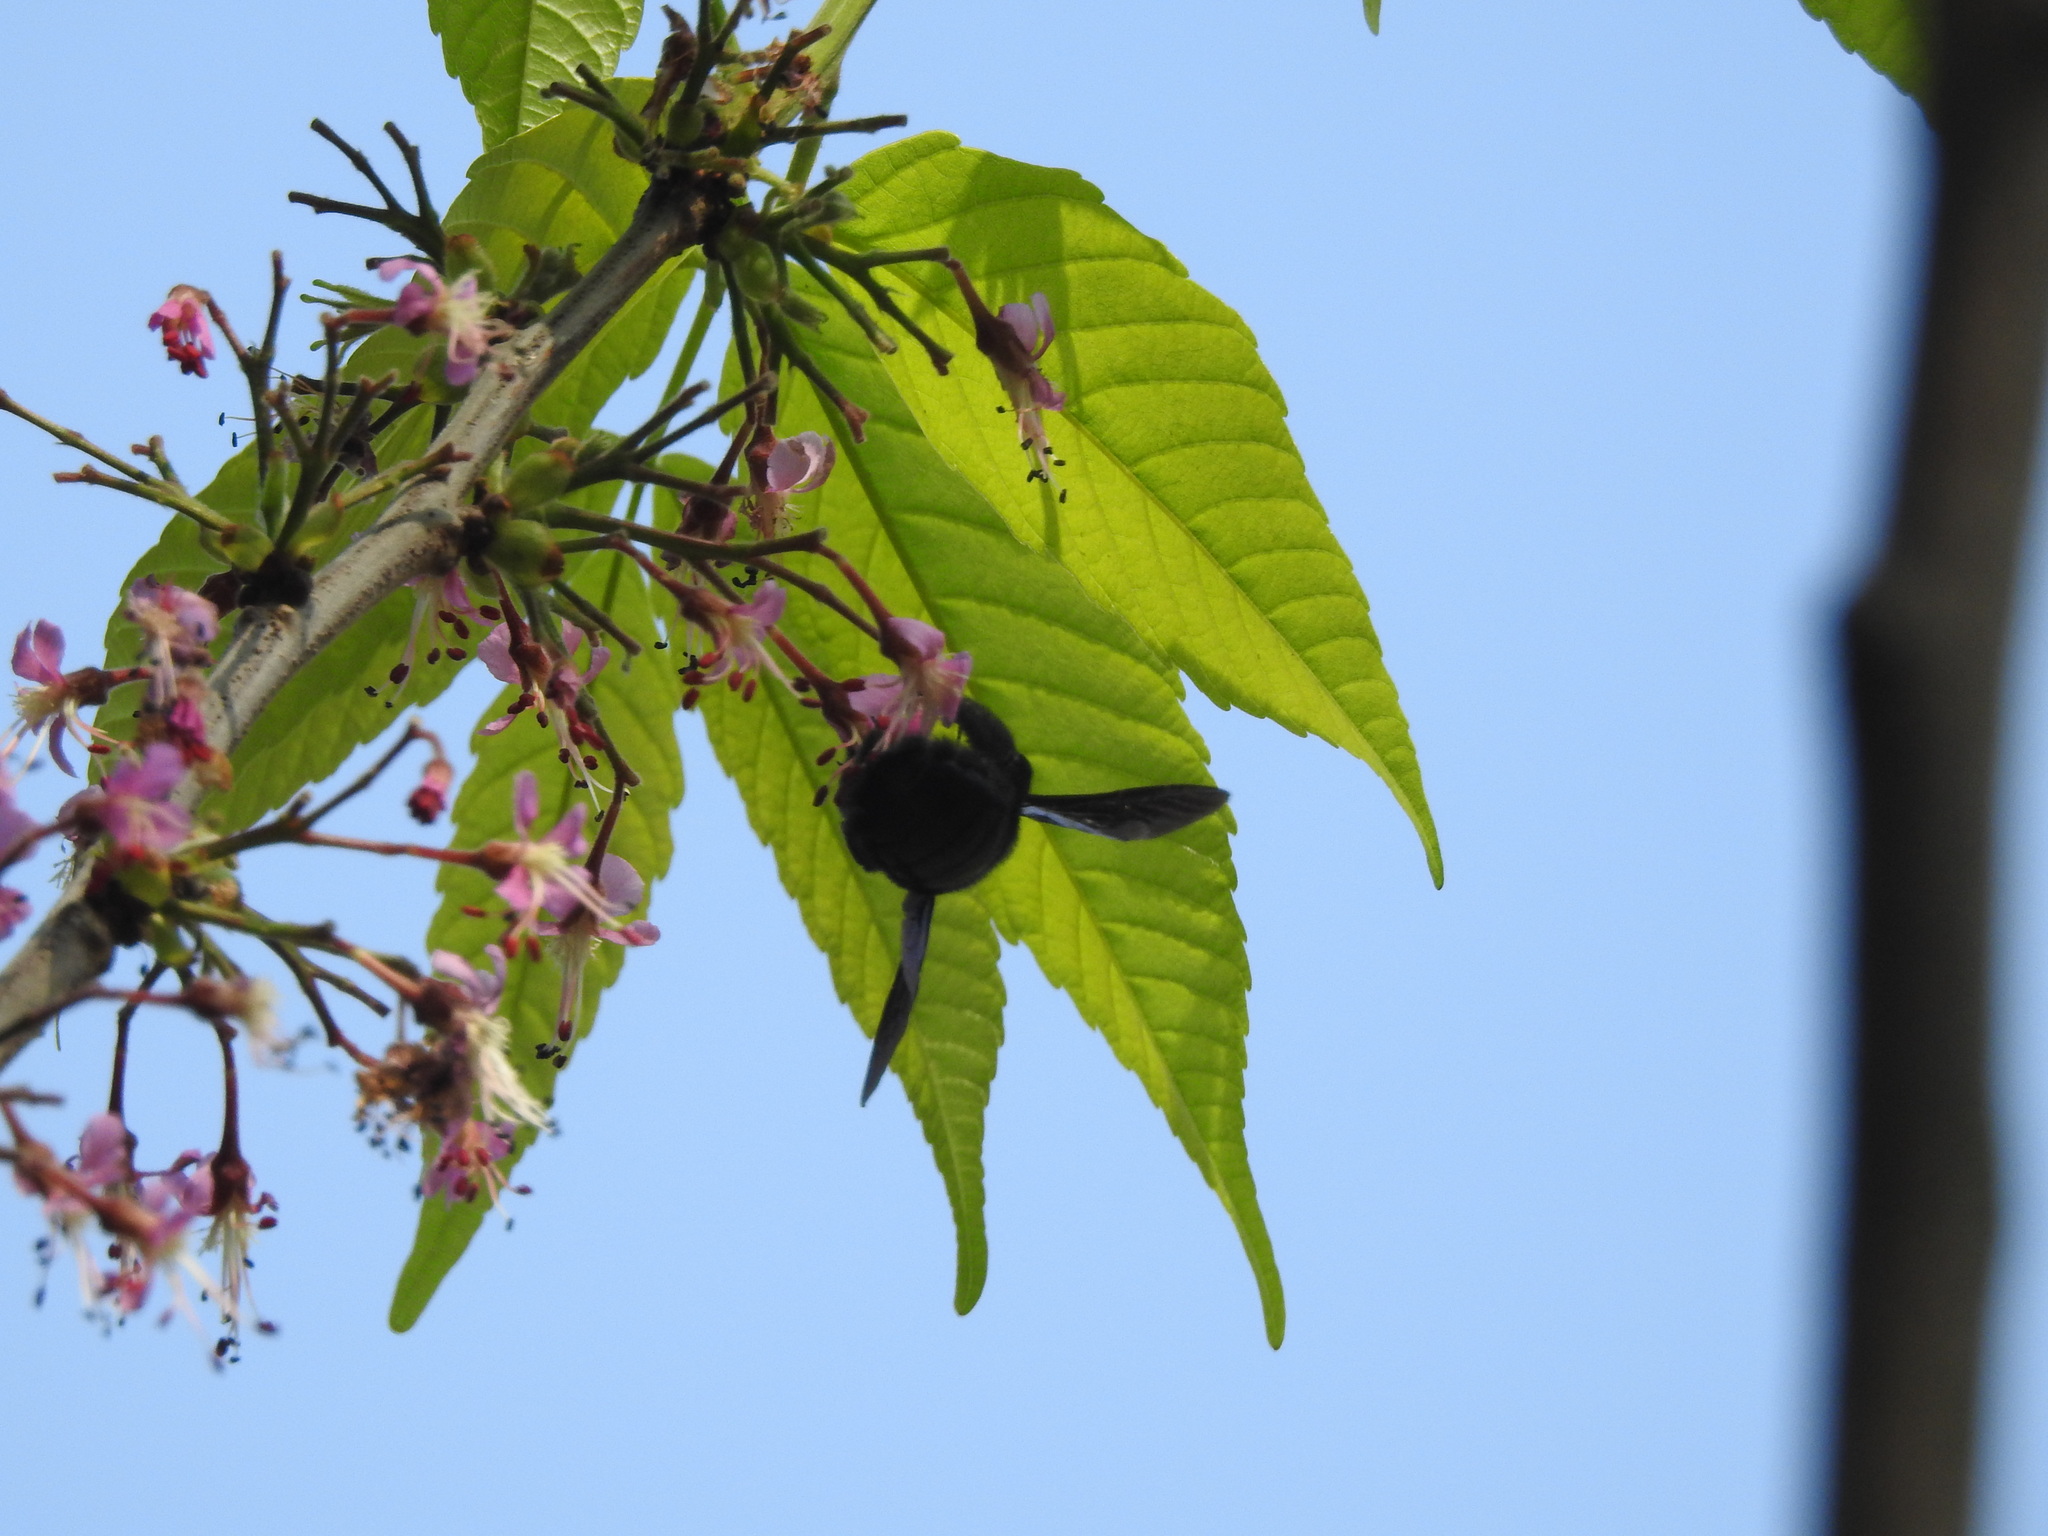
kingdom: Plantae
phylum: Tracheophyta
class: Magnoliopsida
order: Sapindales
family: Sapindaceae
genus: Ungnadia
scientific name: Ungnadia speciosa
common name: Texas-buckeye
